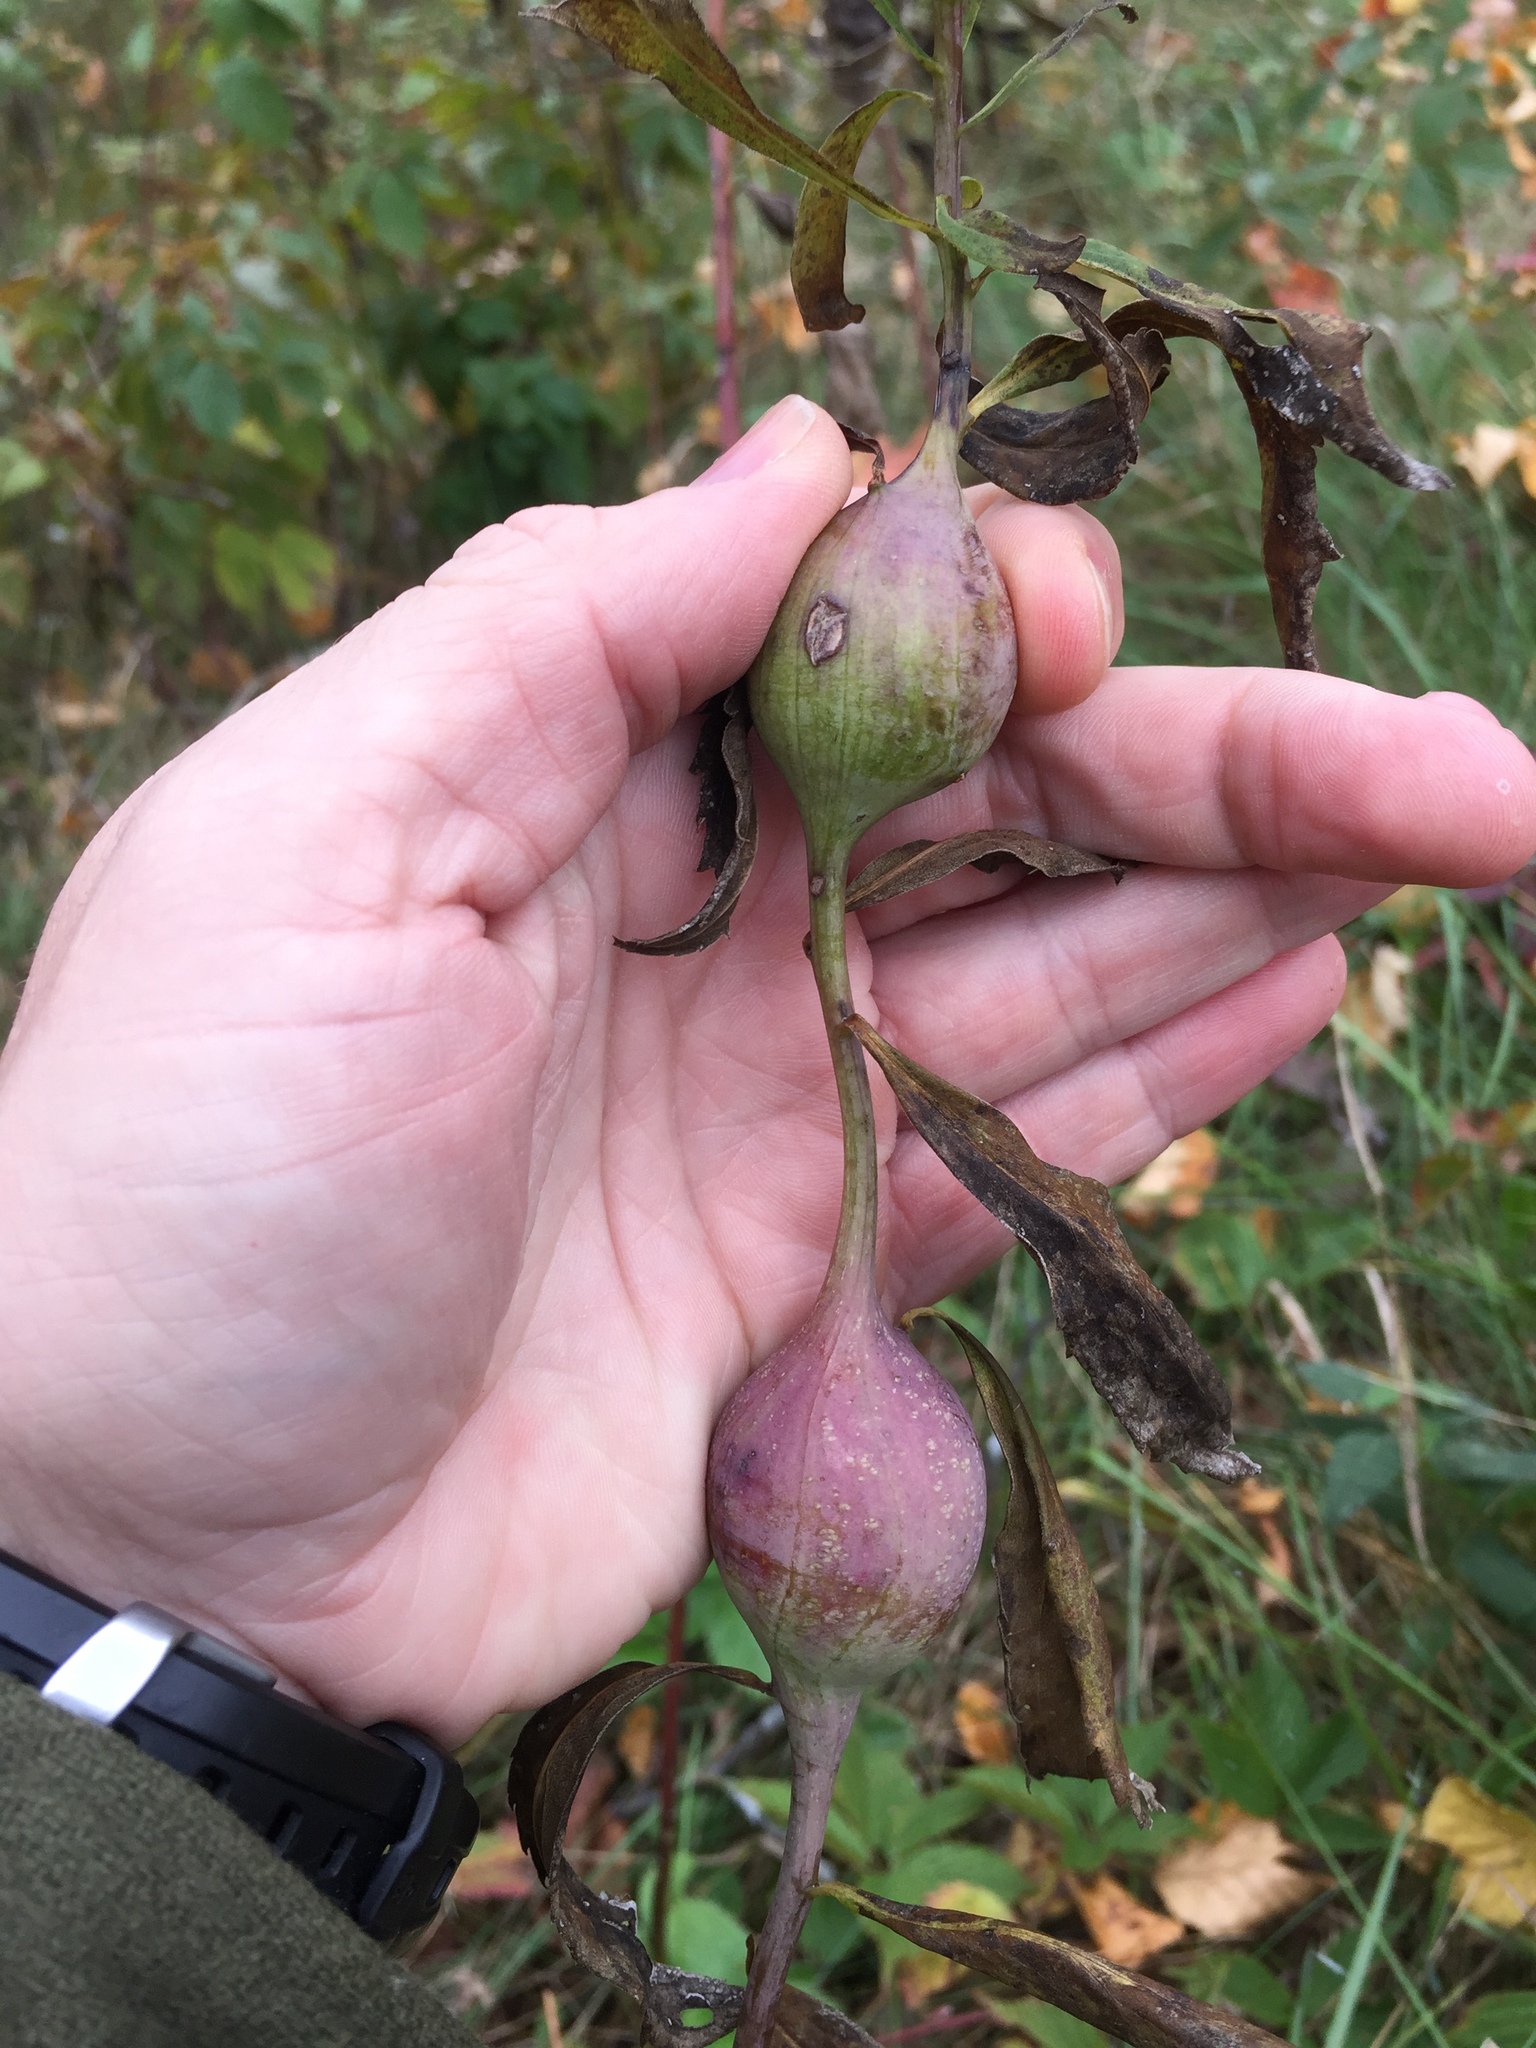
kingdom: Animalia
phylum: Arthropoda
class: Insecta
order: Diptera
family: Tephritidae
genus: Eurosta
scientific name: Eurosta solidaginis
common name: Goldenrod gall fly
